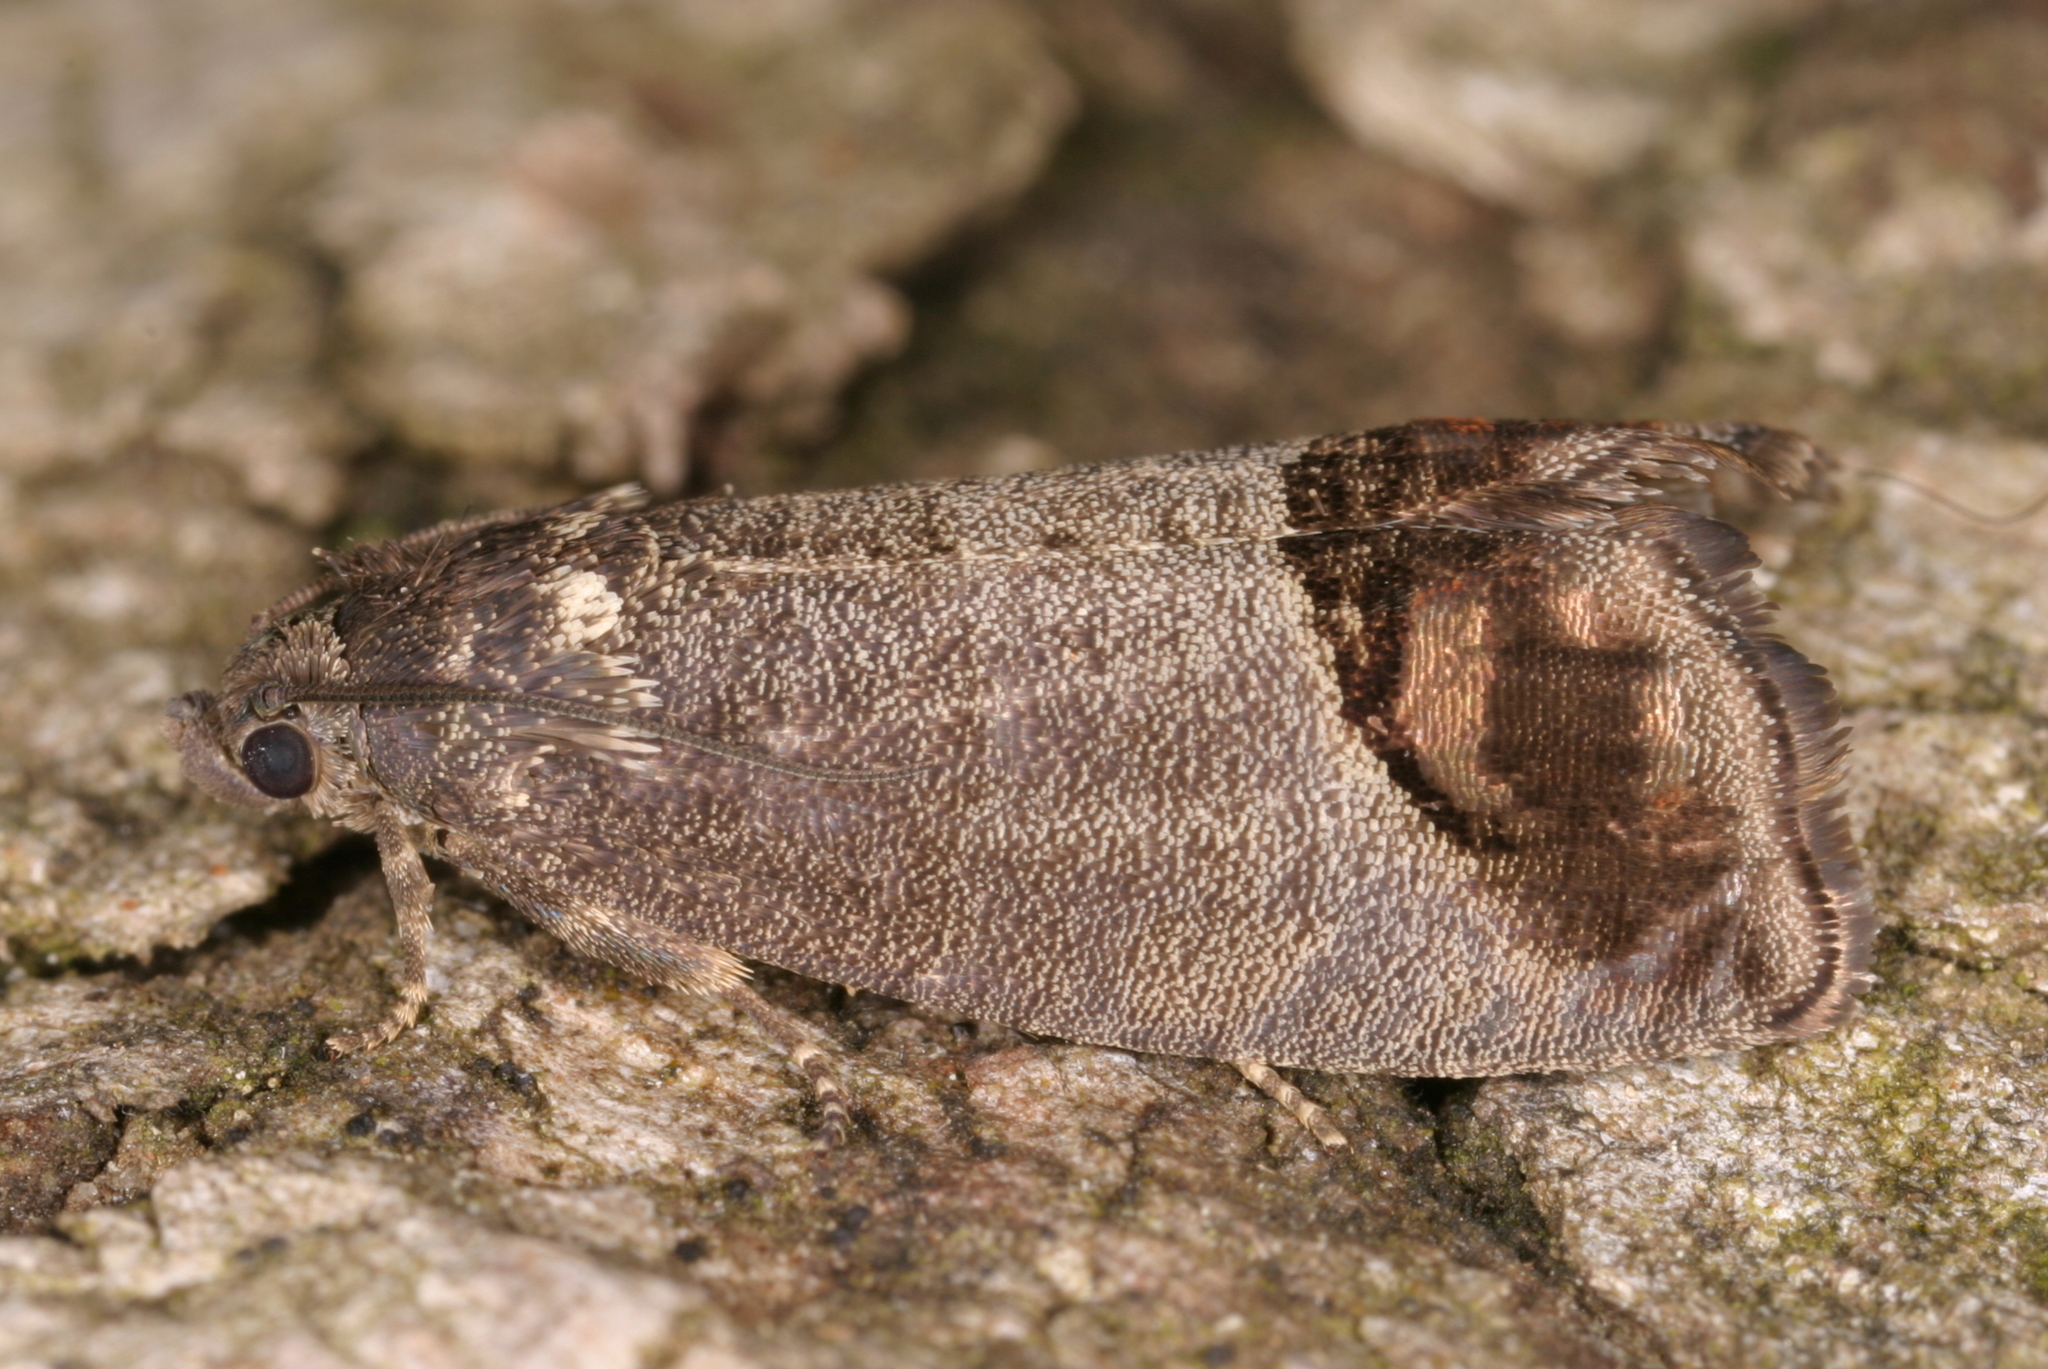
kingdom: Animalia
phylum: Arthropoda
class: Insecta
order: Lepidoptera
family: Tortricidae
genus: Cydia
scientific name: Cydia pomonella
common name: Codling moth
